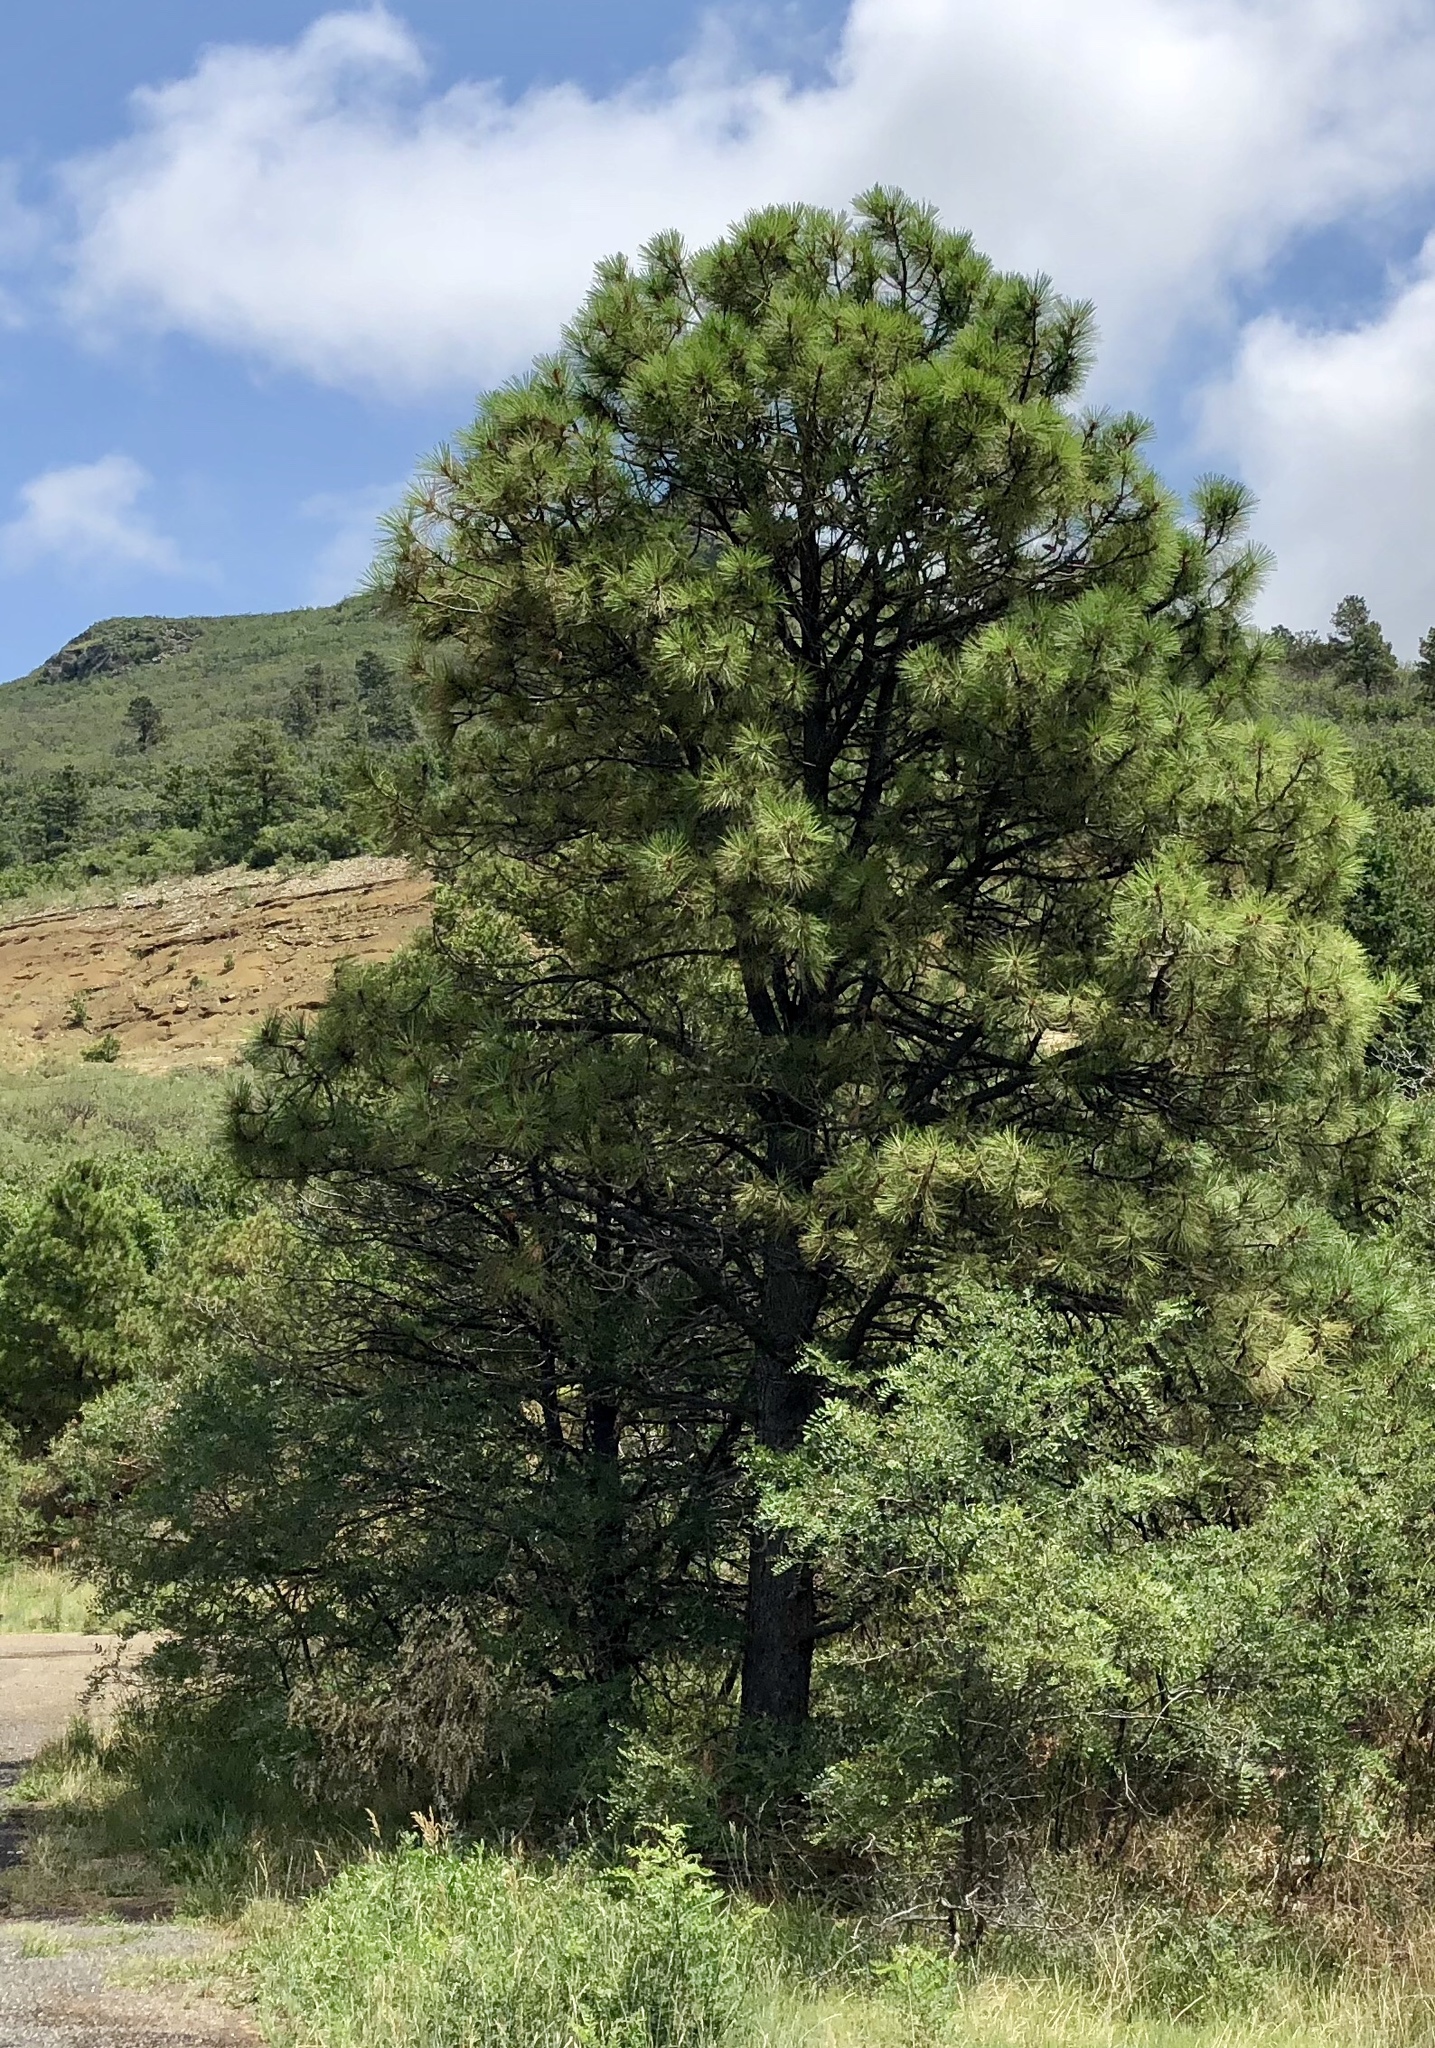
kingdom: Plantae
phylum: Tracheophyta
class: Pinopsida
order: Pinales
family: Pinaceae
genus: Pinus
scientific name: Pinus ponderosa
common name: Western yellow-pine
